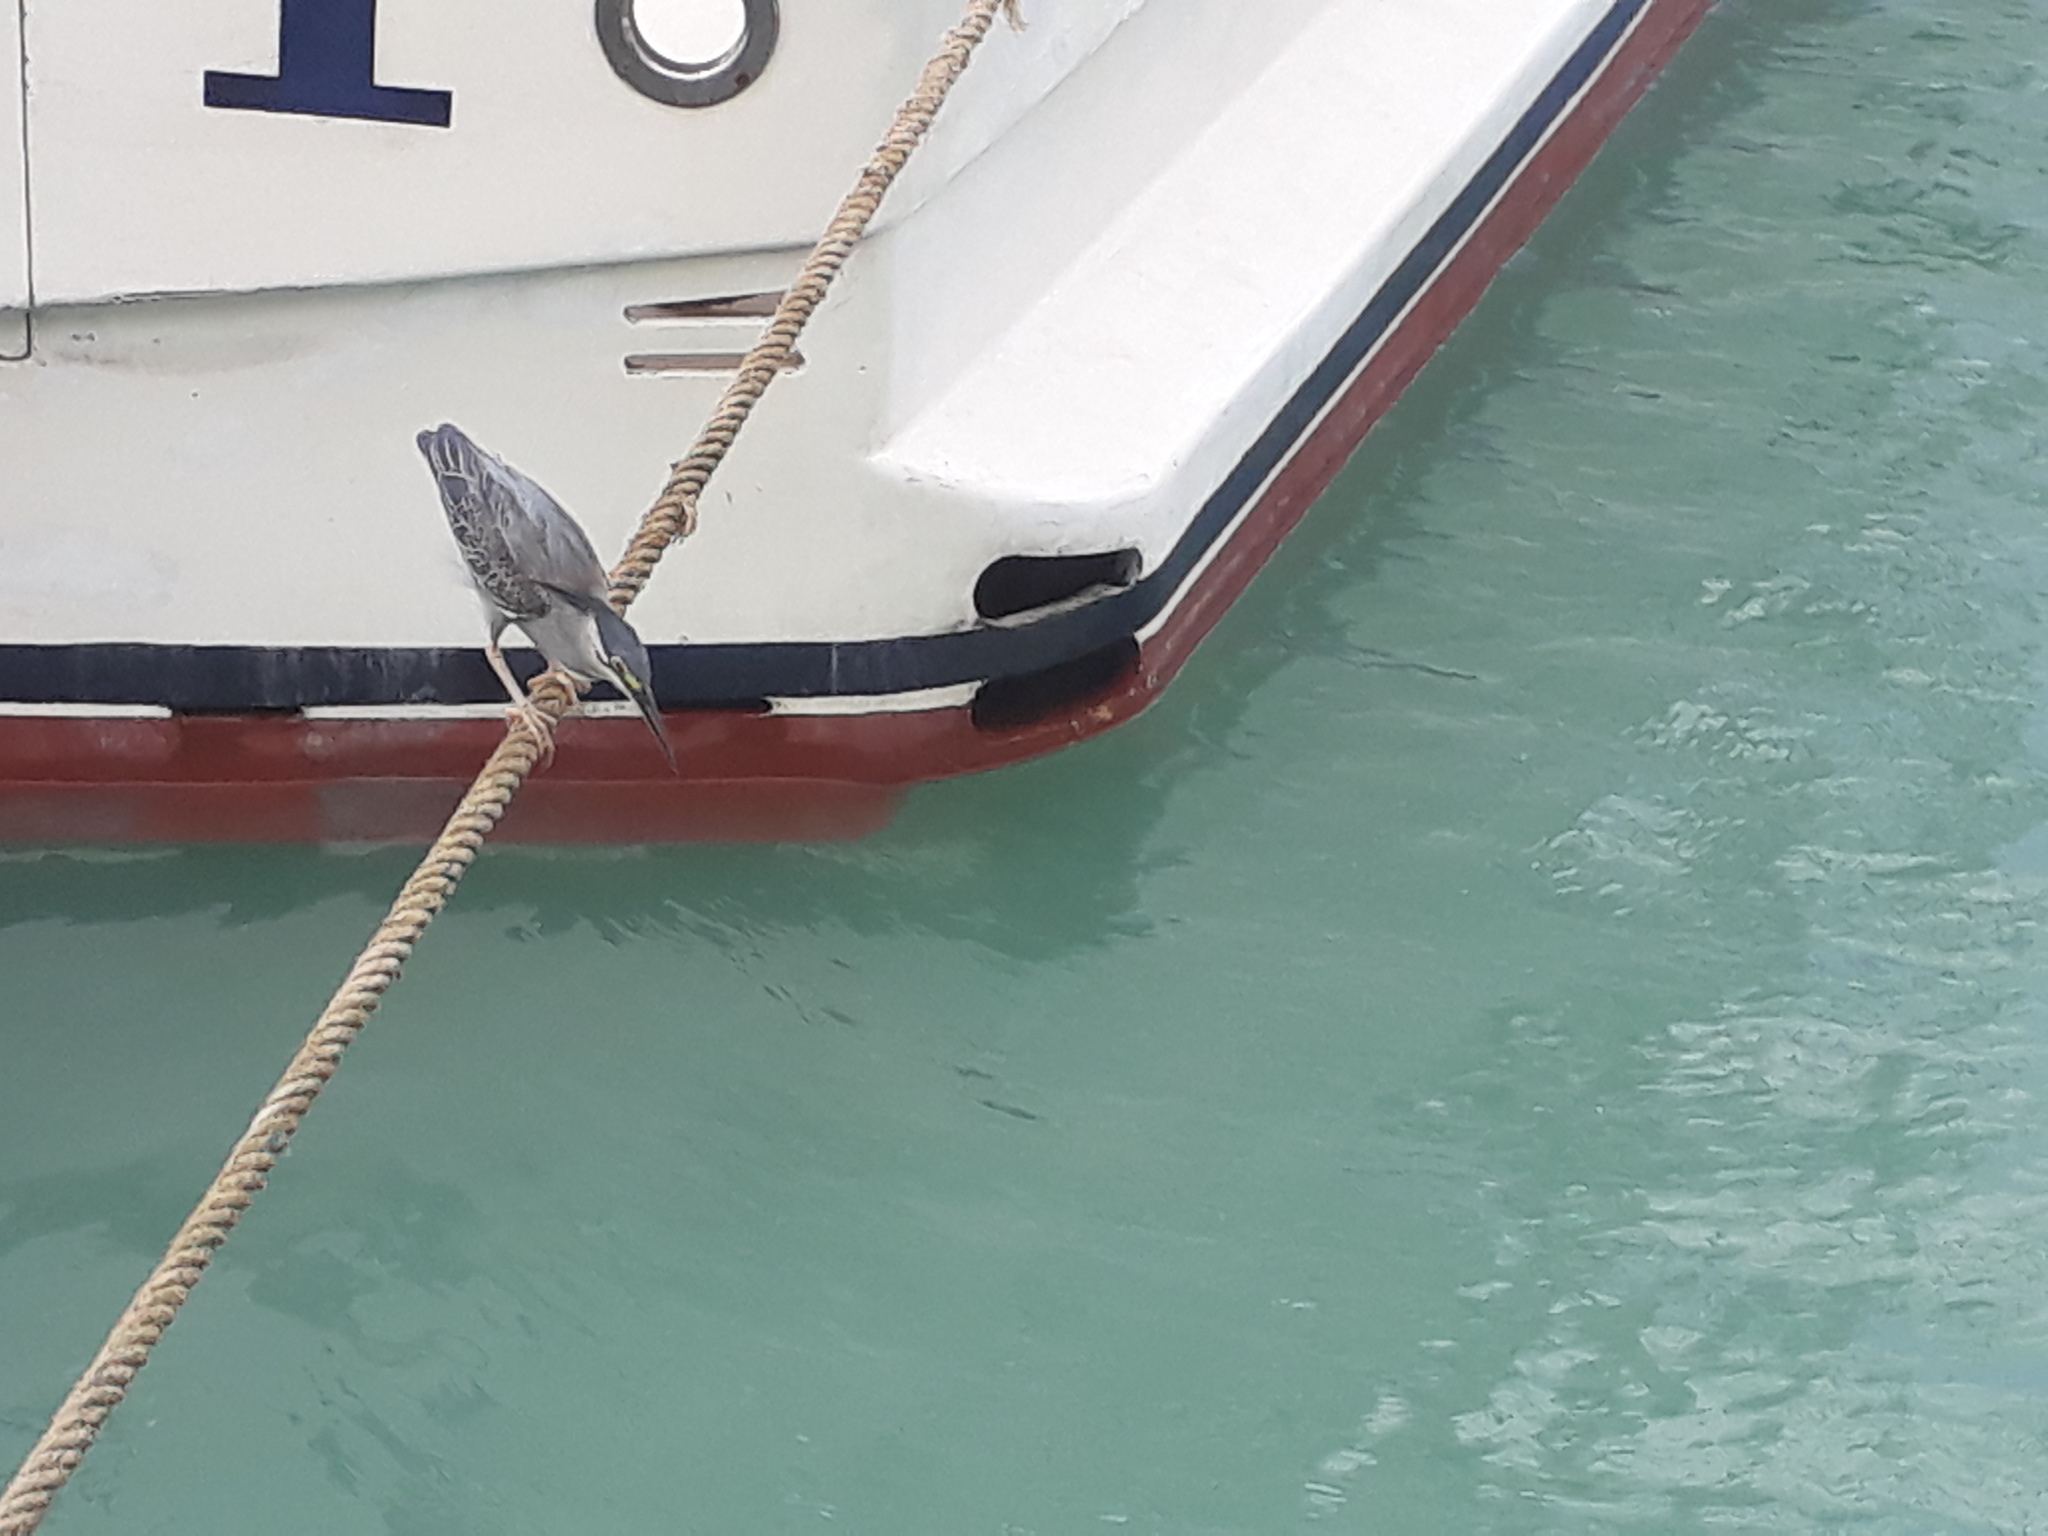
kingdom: Animalia
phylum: Chordata
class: Aves
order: Pelecaniformes
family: Ardeidae
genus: Butorides
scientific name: Butorides striata
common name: Striated heron
